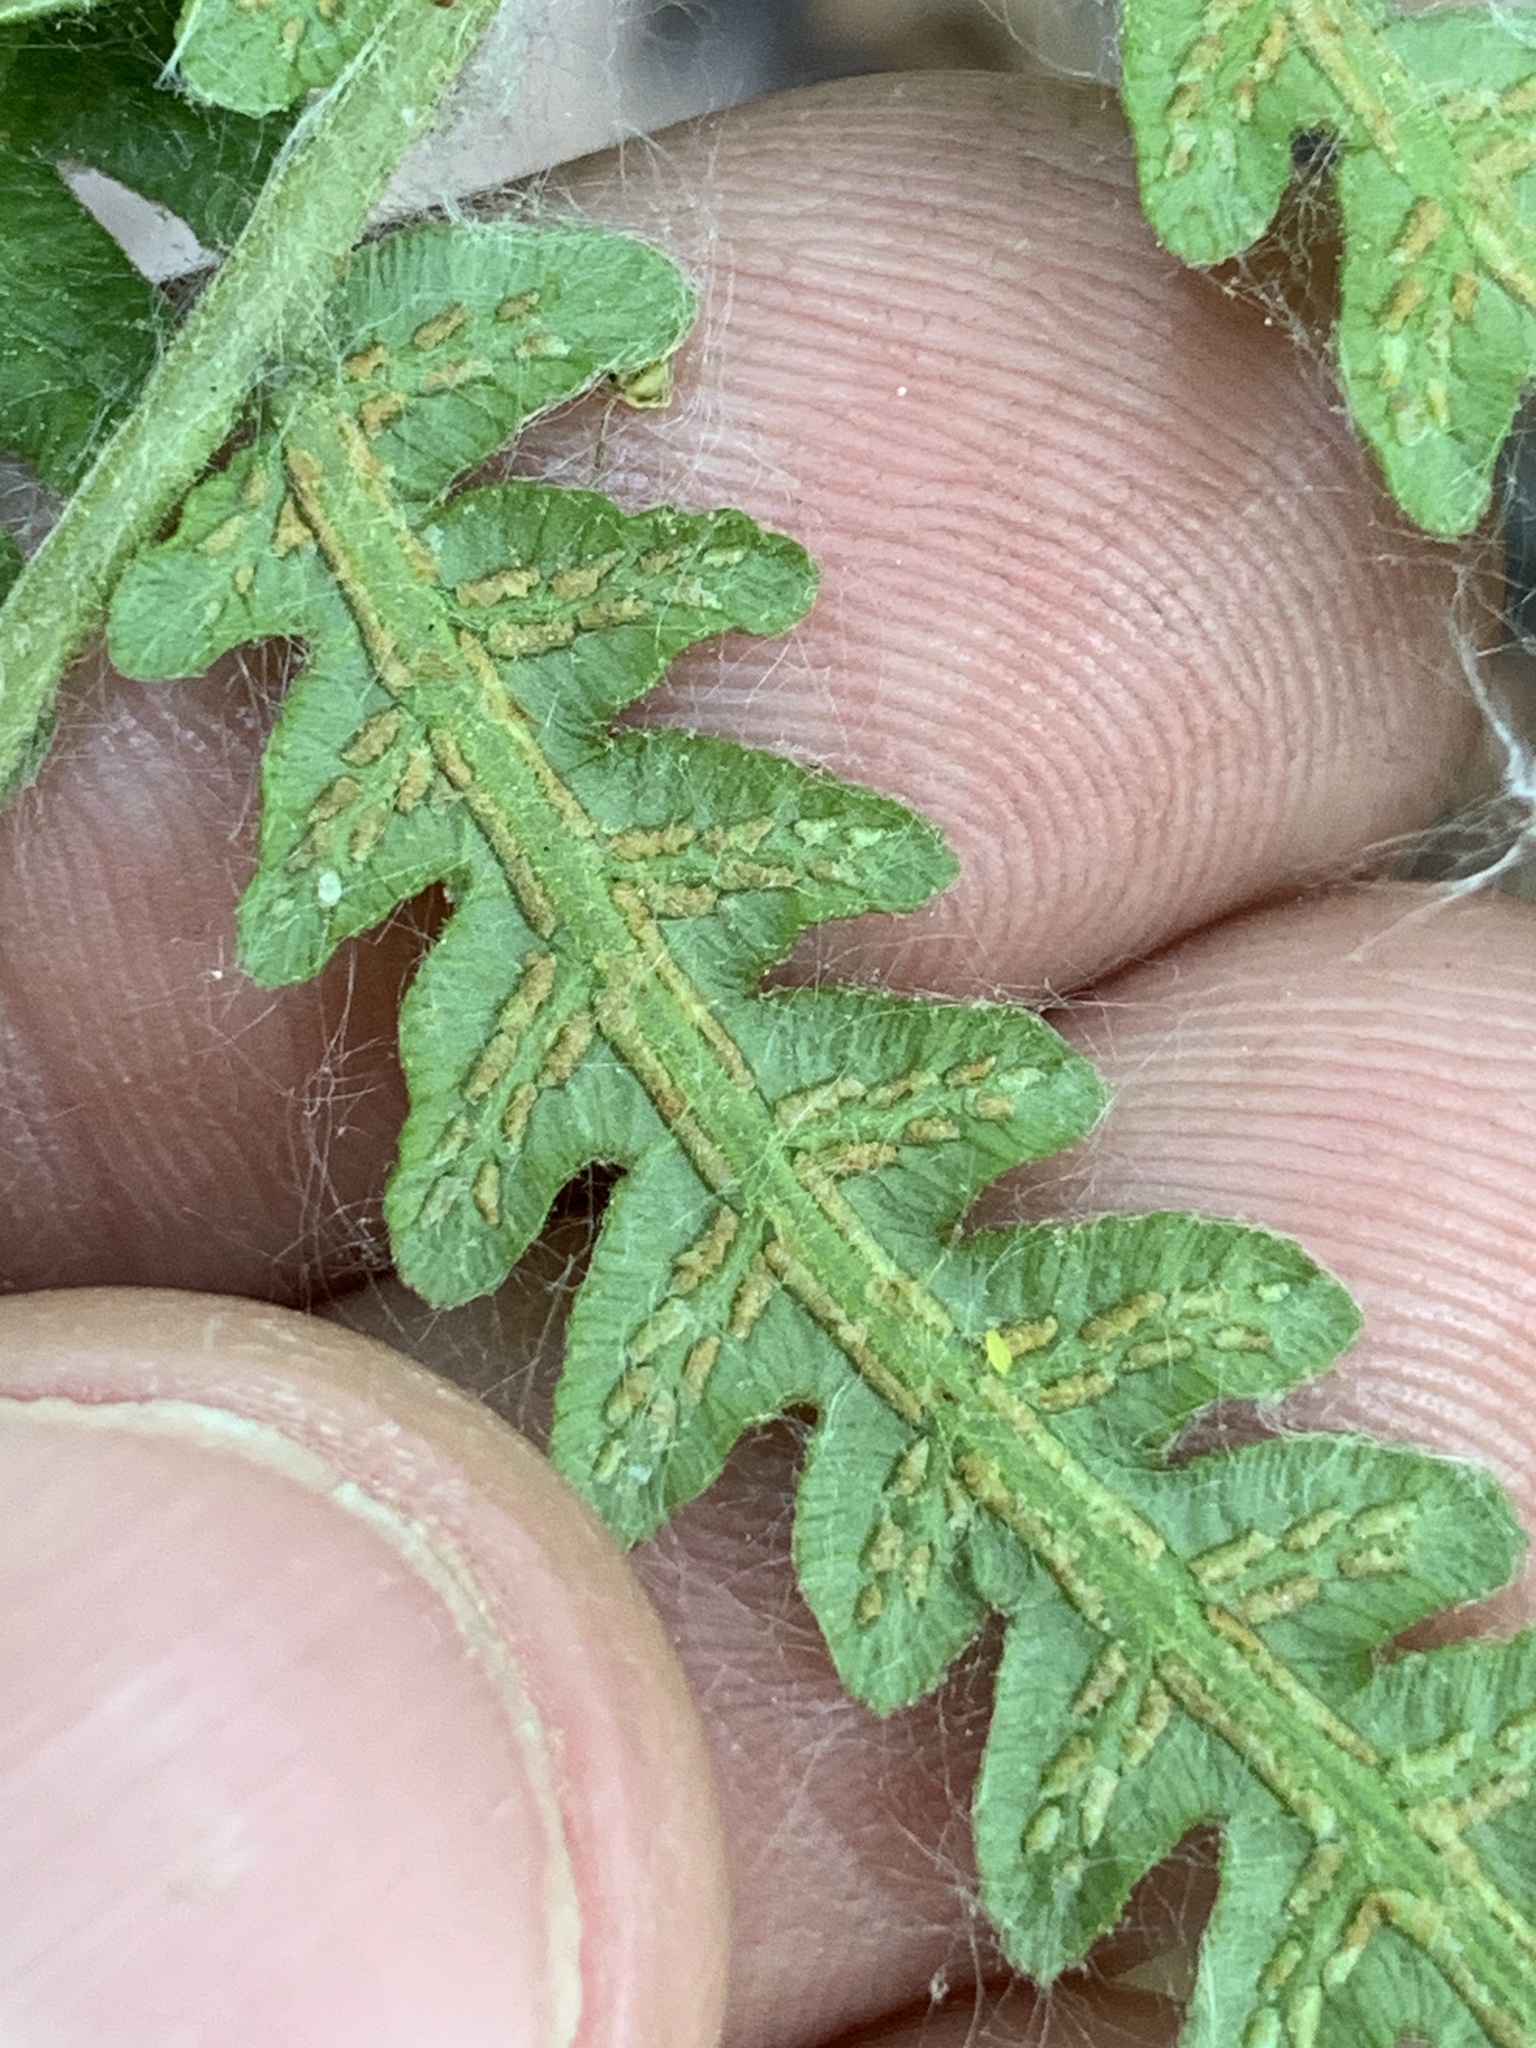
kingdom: Plantae
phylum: Tracheophyta
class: Polypodiopsida
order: Polypodiales
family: Thelypteridaceae
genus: Thelypteris
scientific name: Thelypteris palustris
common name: Marsh fern
